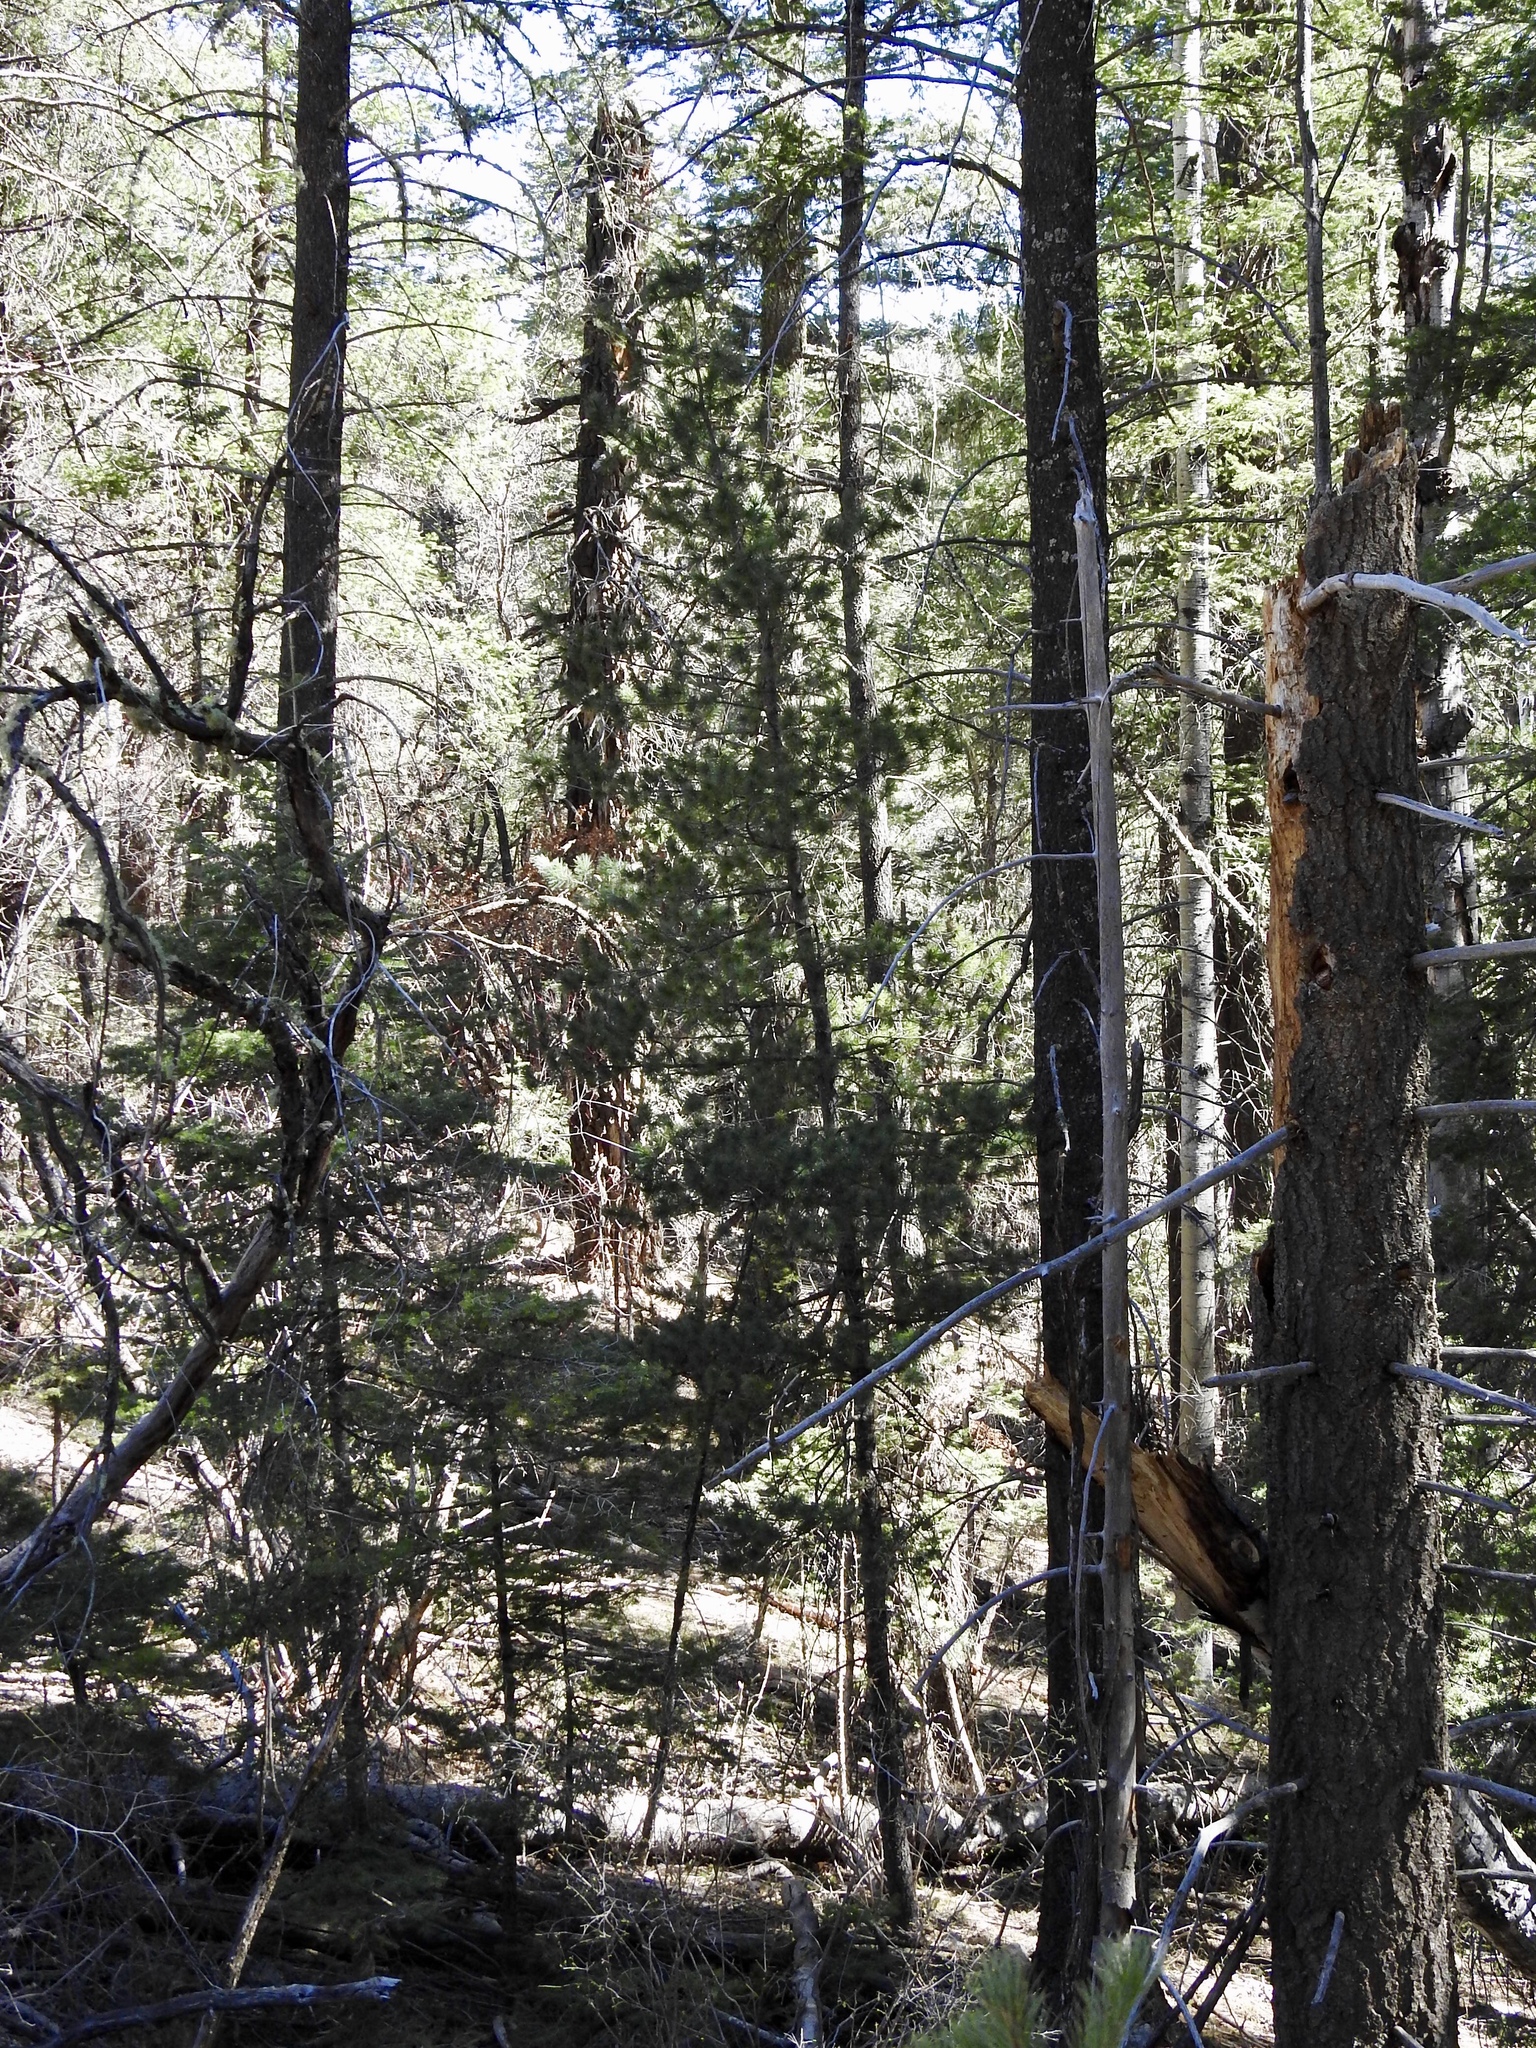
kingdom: Plantae
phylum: Tracheophyta
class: Pinopsida
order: Pinales
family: Pinaceae
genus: Pinus
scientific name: Pinus strobiformis
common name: Southwestern white pine
